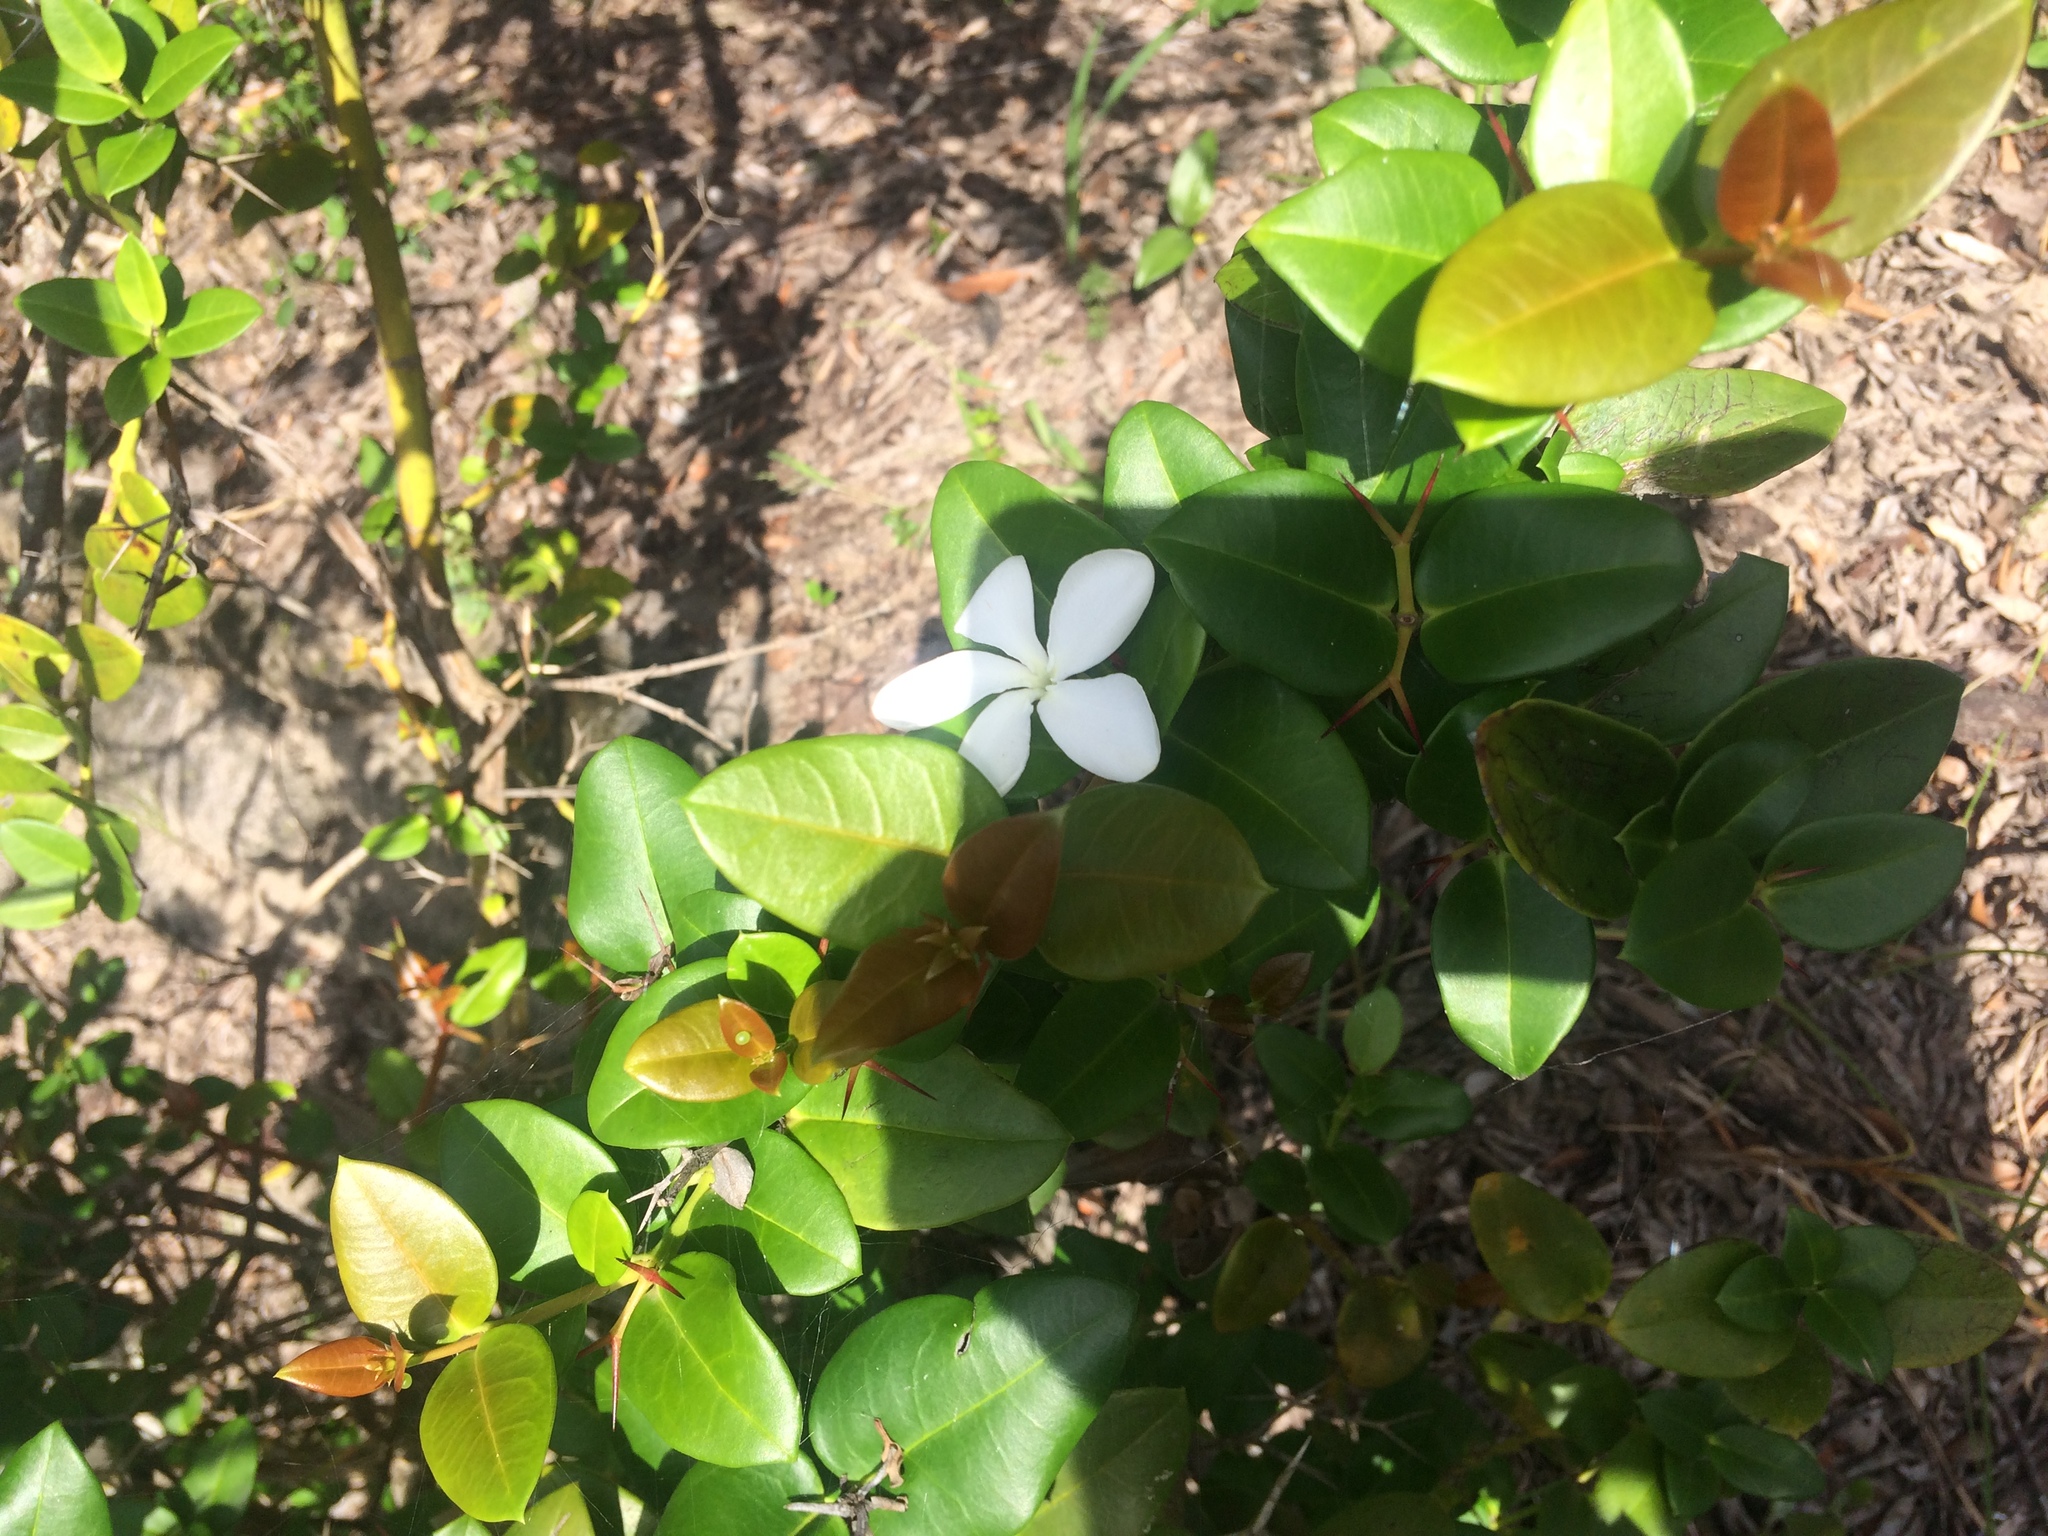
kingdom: Plantae
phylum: Tracheophyta
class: Magnoliopsida
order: Gentianales
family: Apocynaceae
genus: Carissa
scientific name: Carissa macrocarpa
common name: Natal plum
